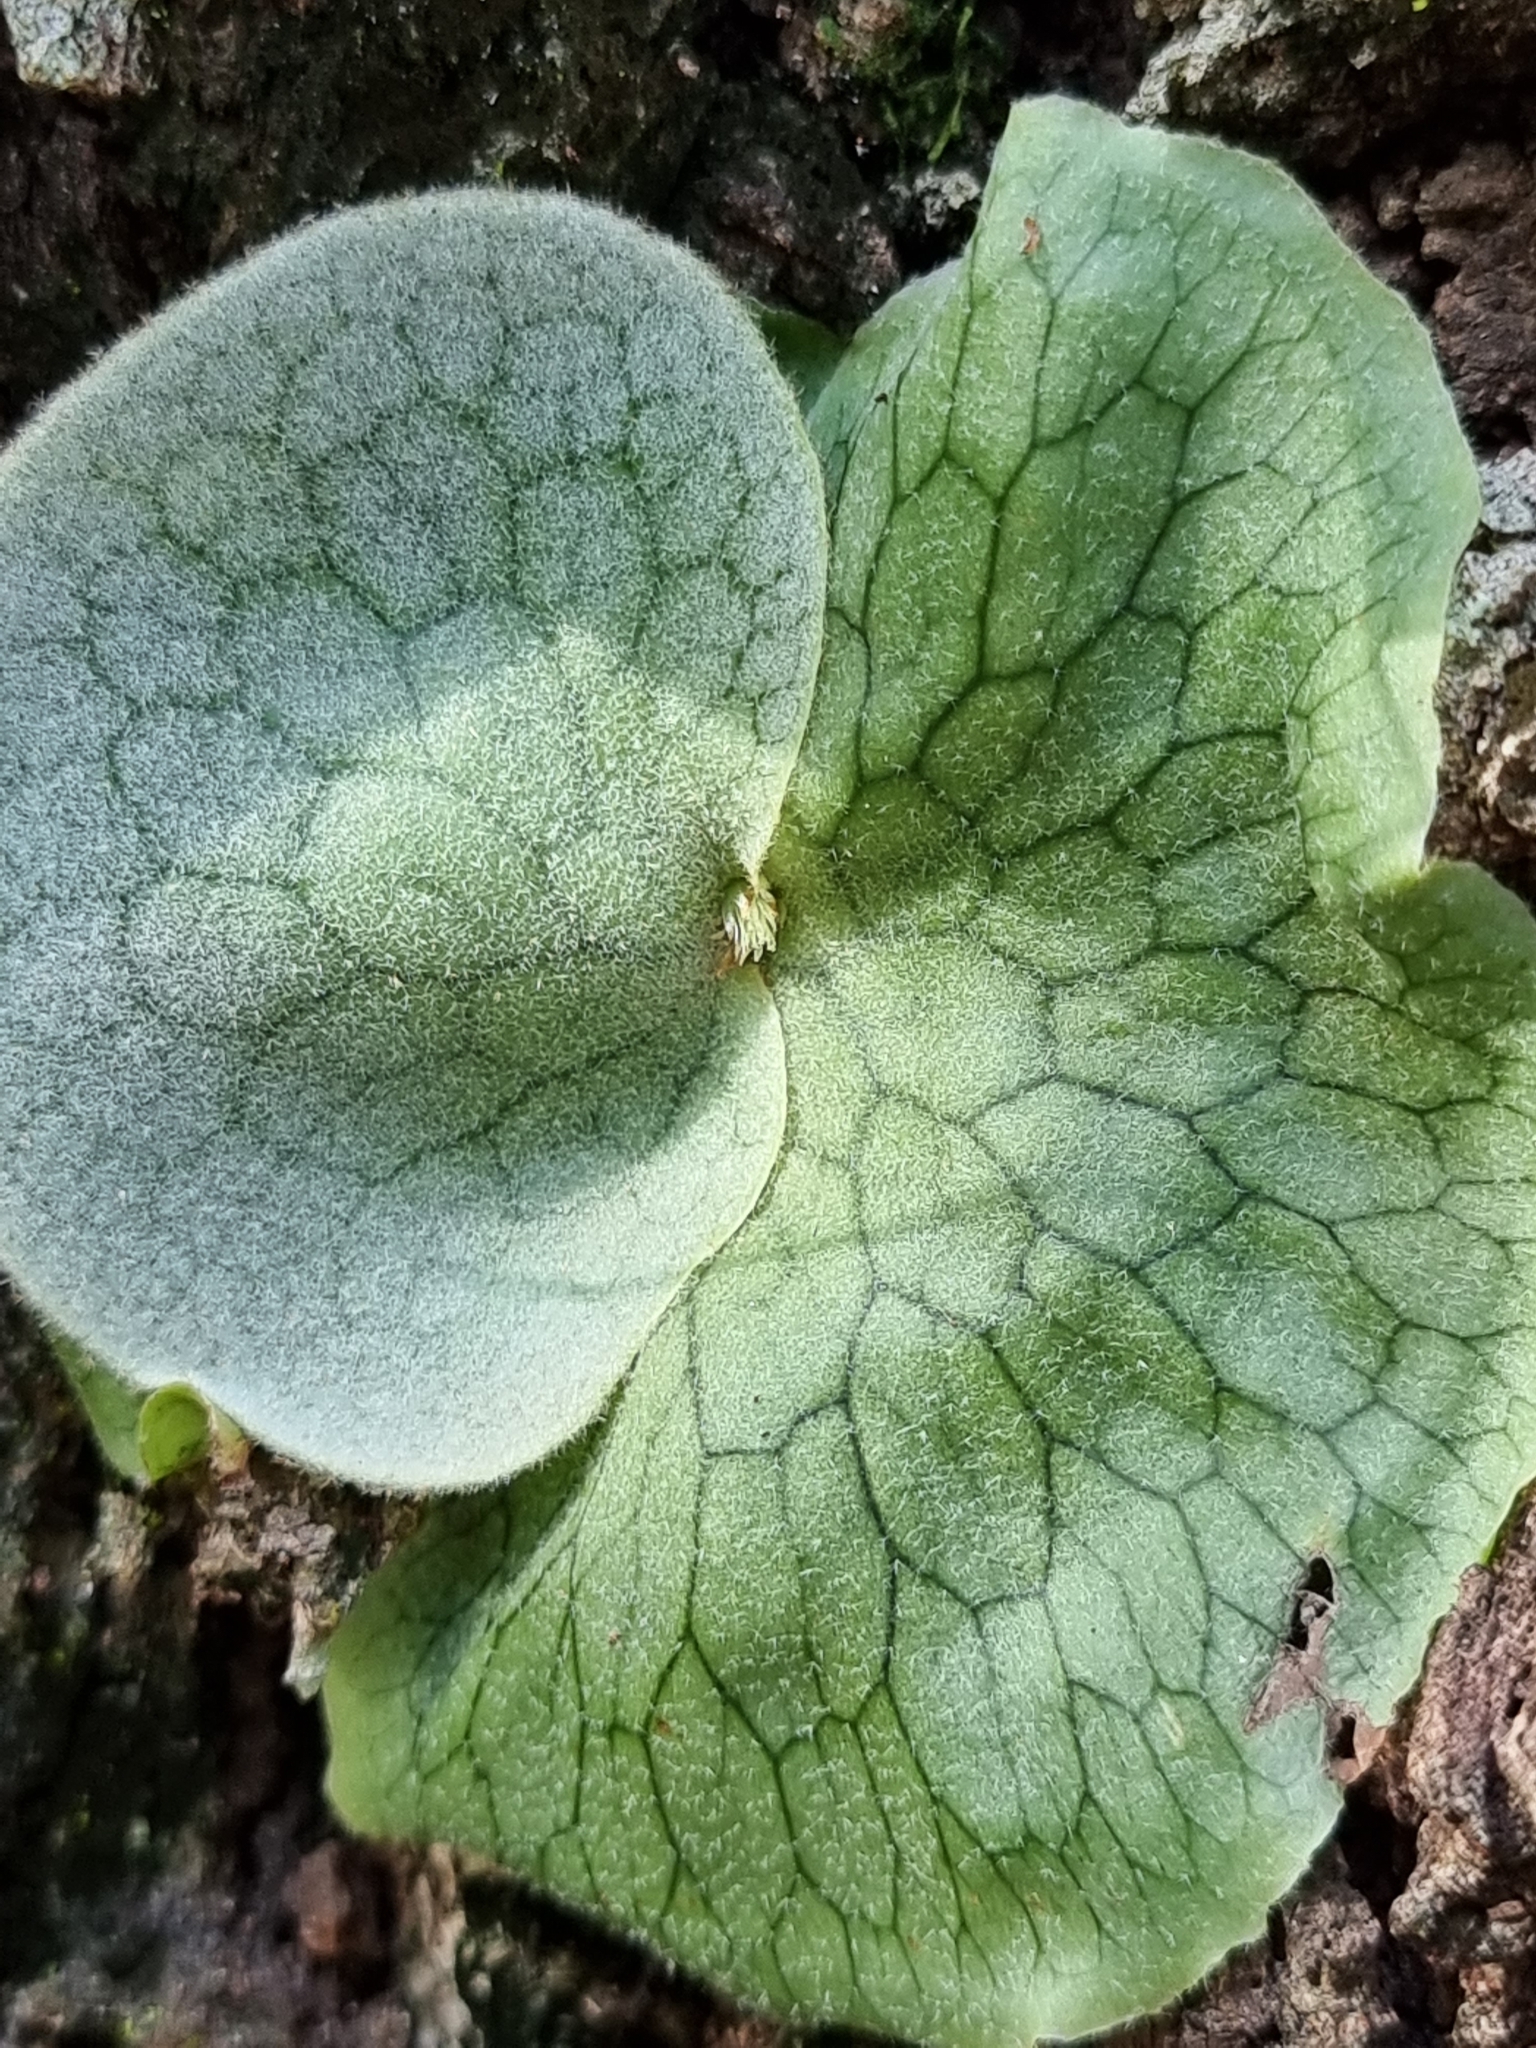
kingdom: Plantae
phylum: Tracheophyta
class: Polypodiopsida
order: Polypodiales
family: Polypodiaceae
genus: Platycerium
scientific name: Platycerium superbum
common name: Staghorn fern
